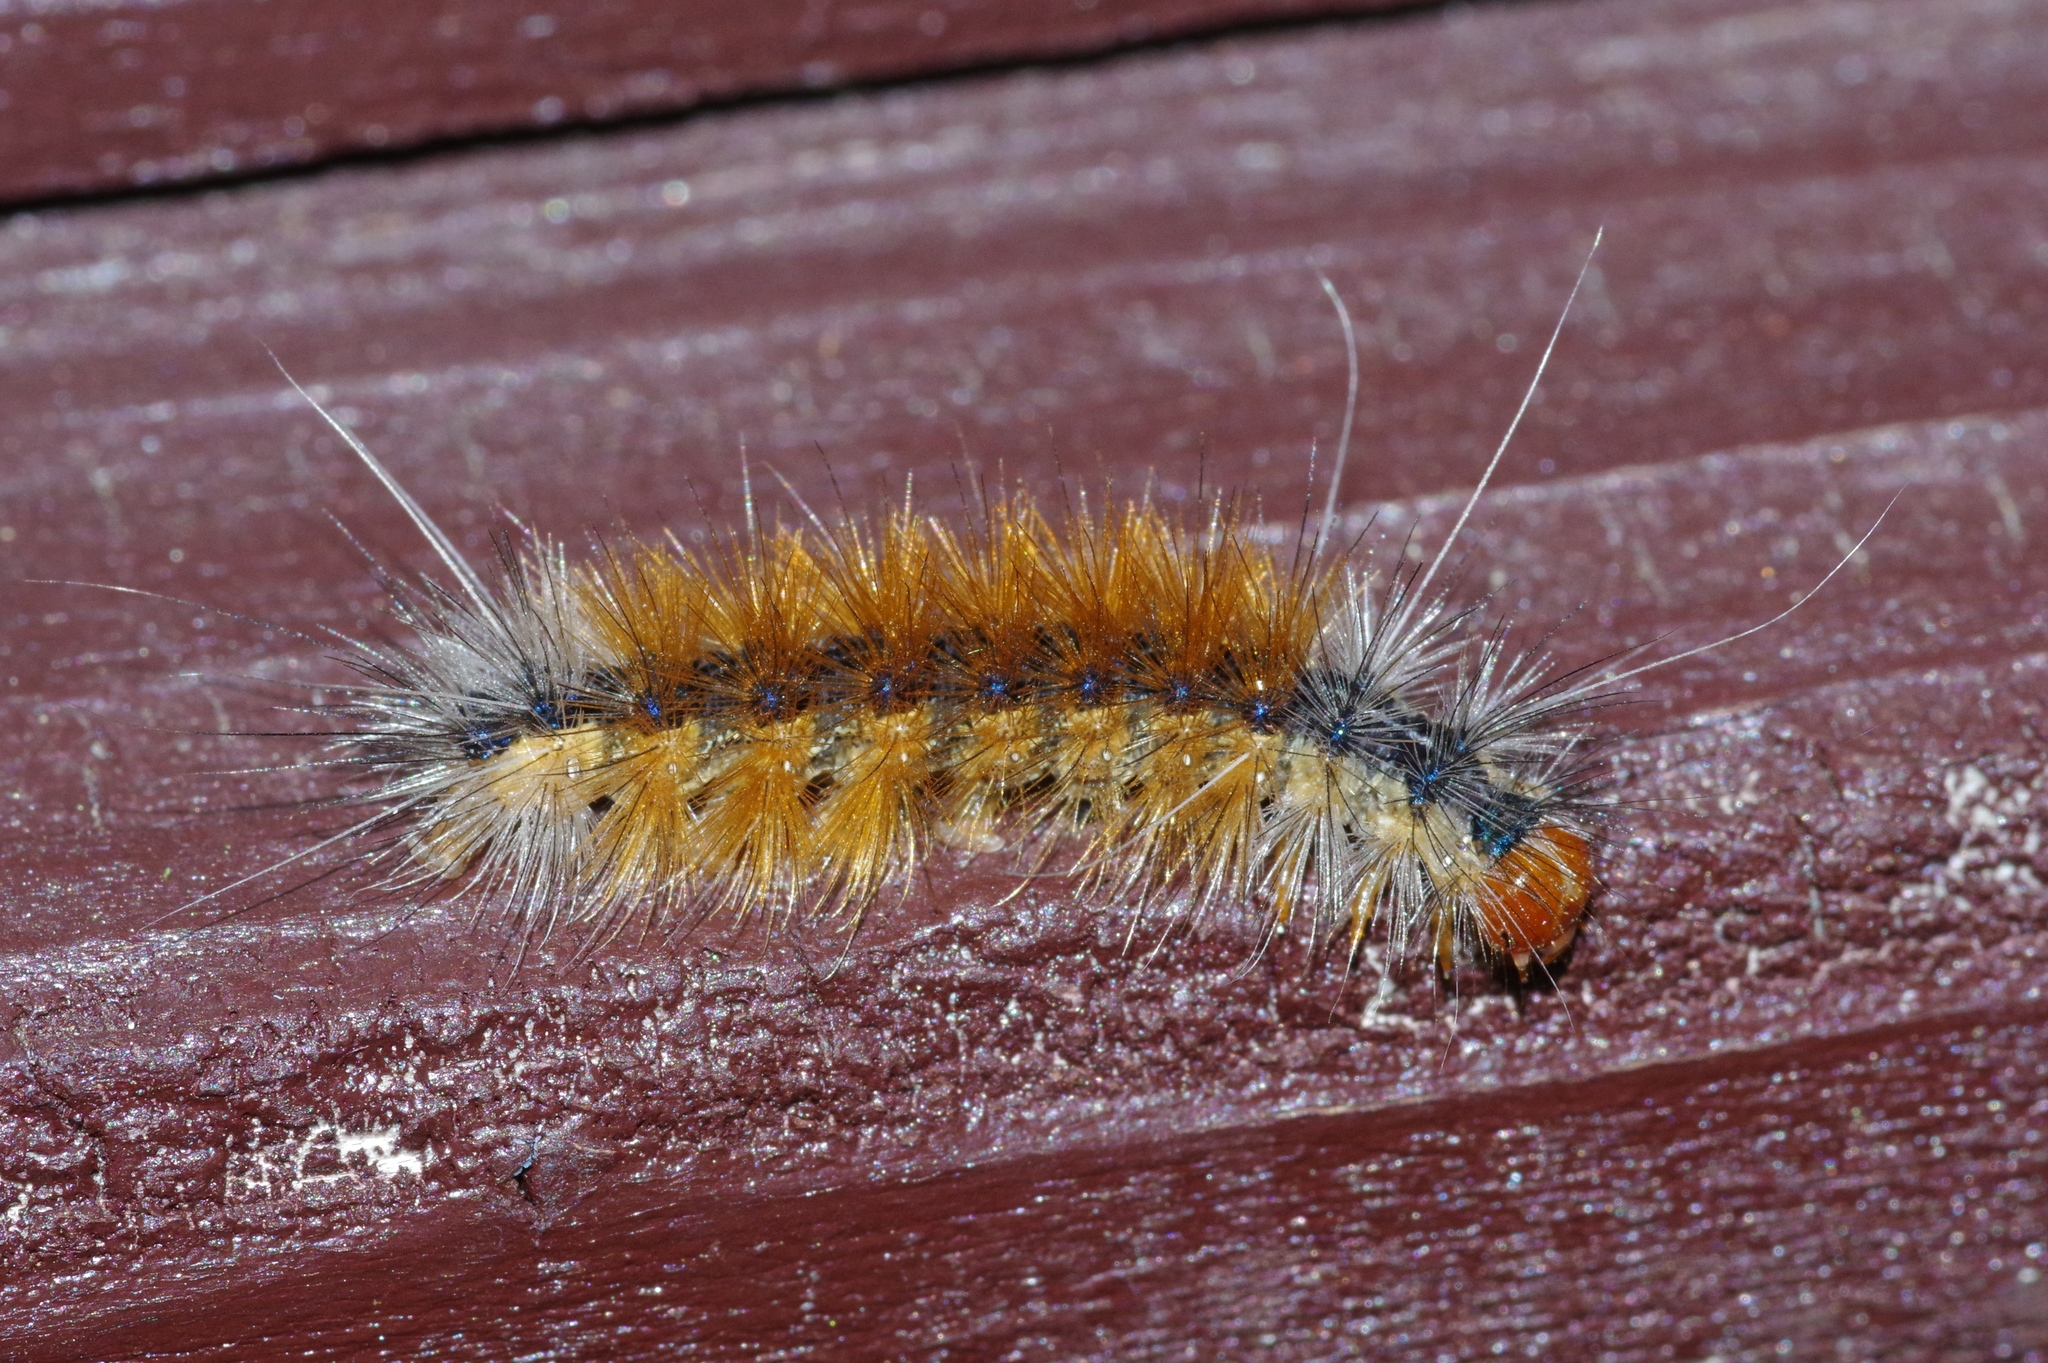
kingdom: Animalia
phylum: Arthropoda
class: Insecta
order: Lepidoptera
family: Erebidae
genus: Lemyra
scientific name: Lemyra inaequalis
